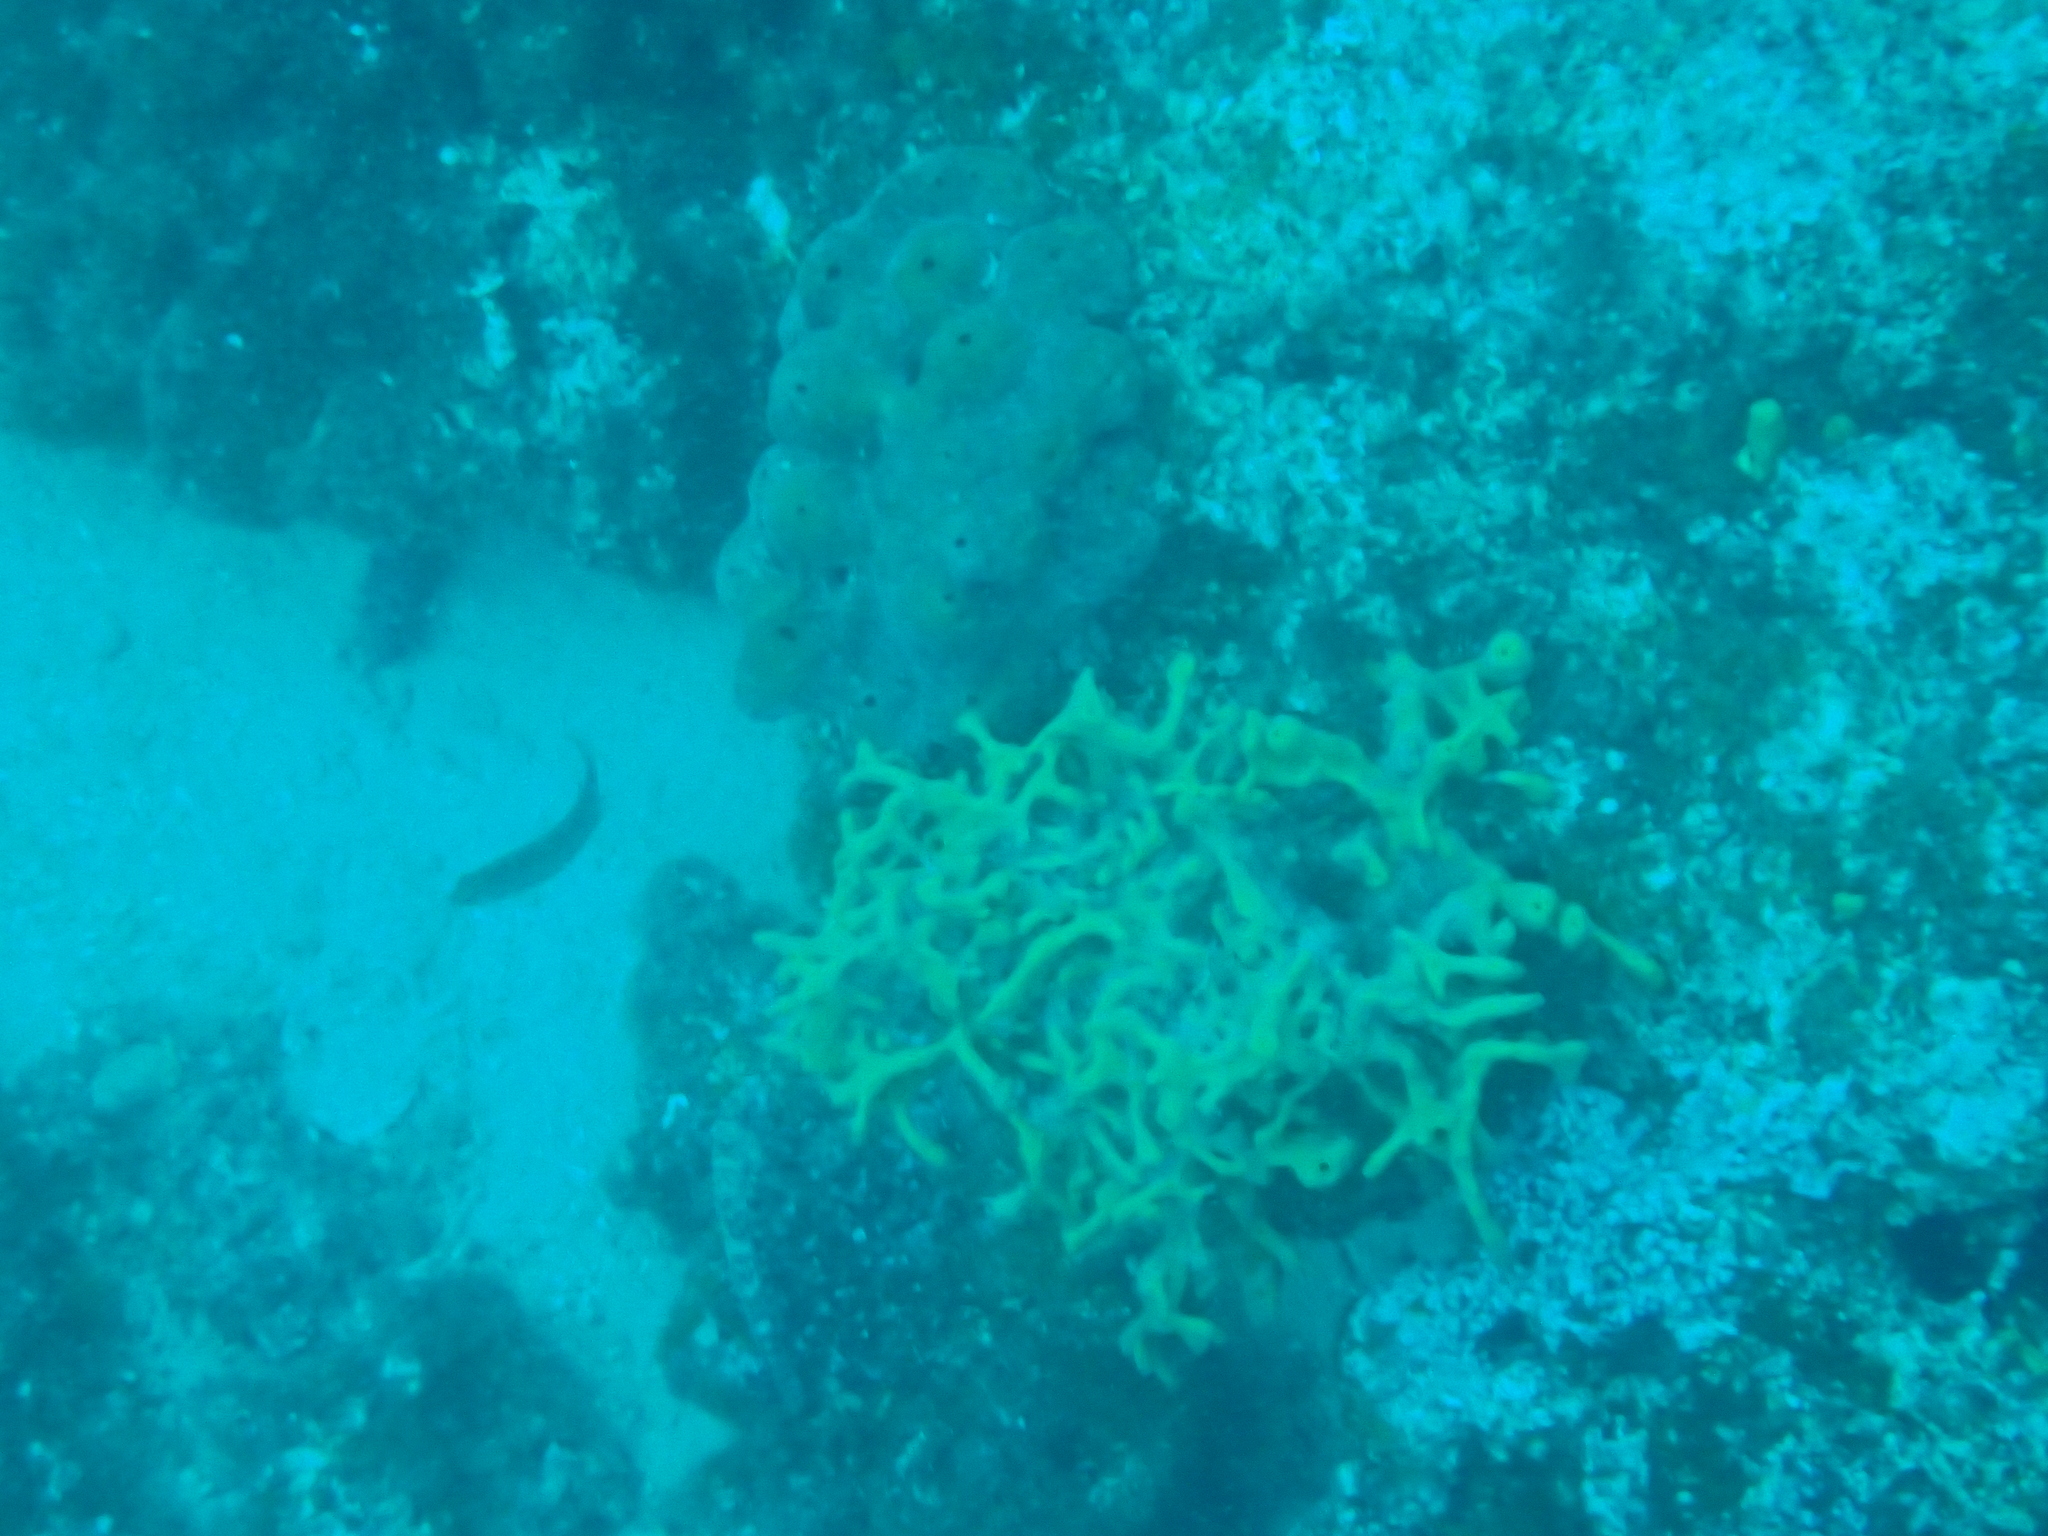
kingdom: Animalia
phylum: Porifera
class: Demospongiae
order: Verongiida
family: Aplysinidae
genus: Aplysina
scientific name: Aplysina aerophoba
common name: Aureate sponge
